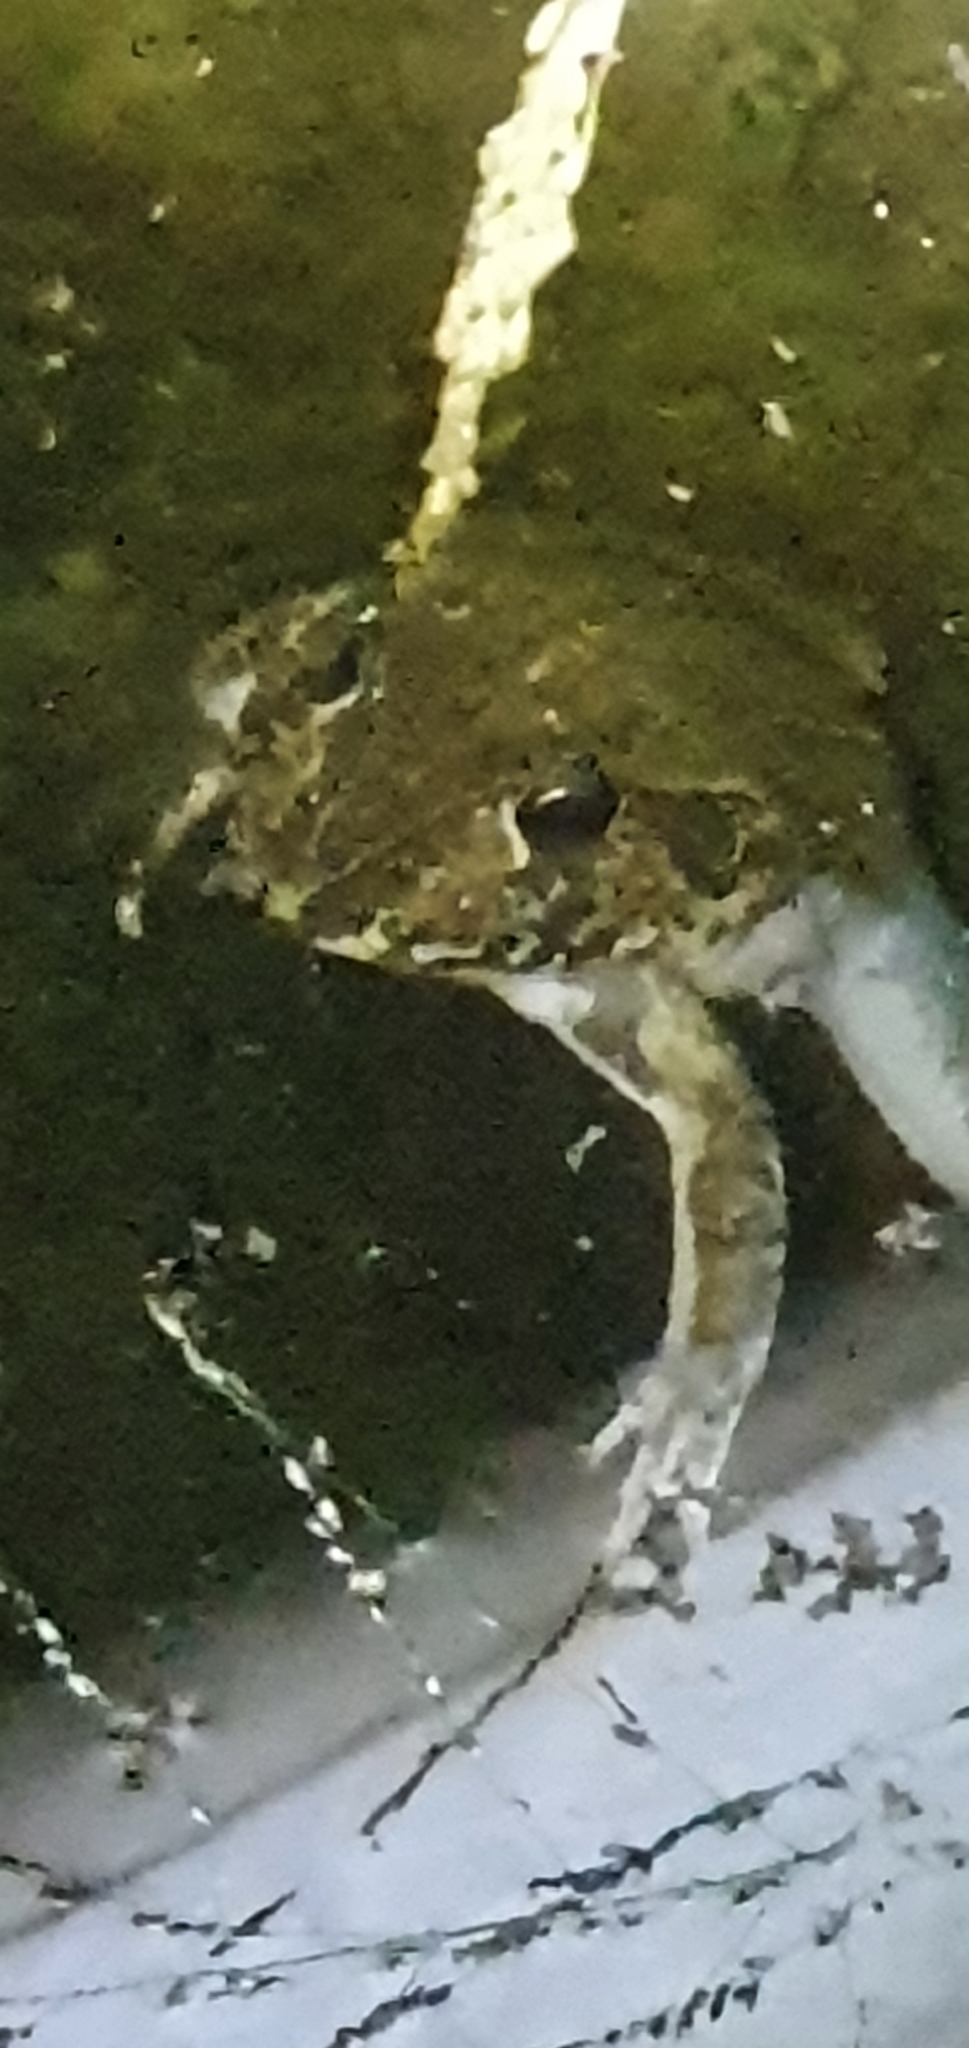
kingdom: Animalia
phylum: Chordata
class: Amphibia
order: Anura
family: Pelodryadidae
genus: Ranoidea
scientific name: Ranoidea novaehollandiae
